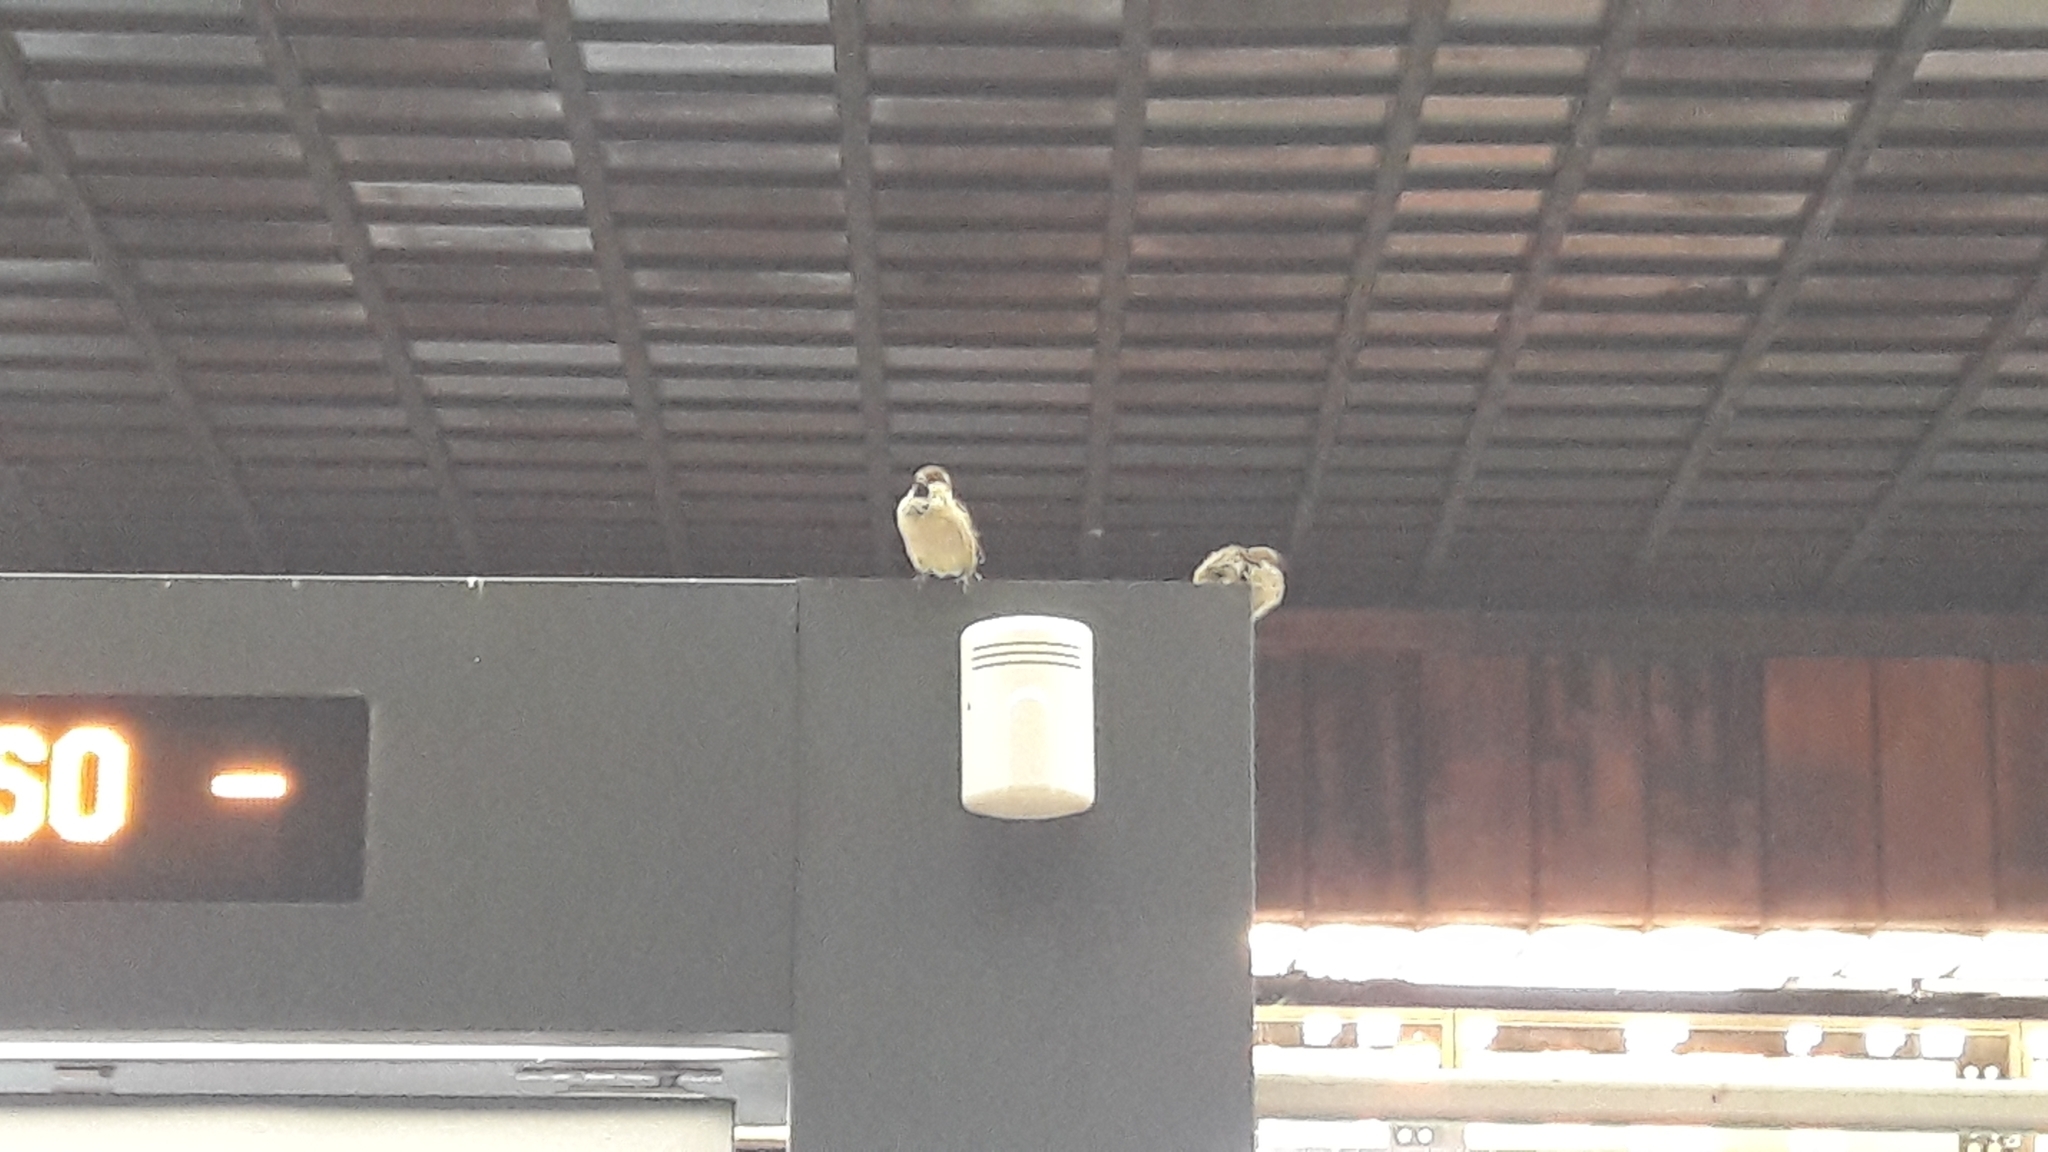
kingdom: Animalia
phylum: Chordata
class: Aves
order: Passeriformes
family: Passeridae
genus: Passer
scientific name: Passer italiae
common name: Italian sparrow
